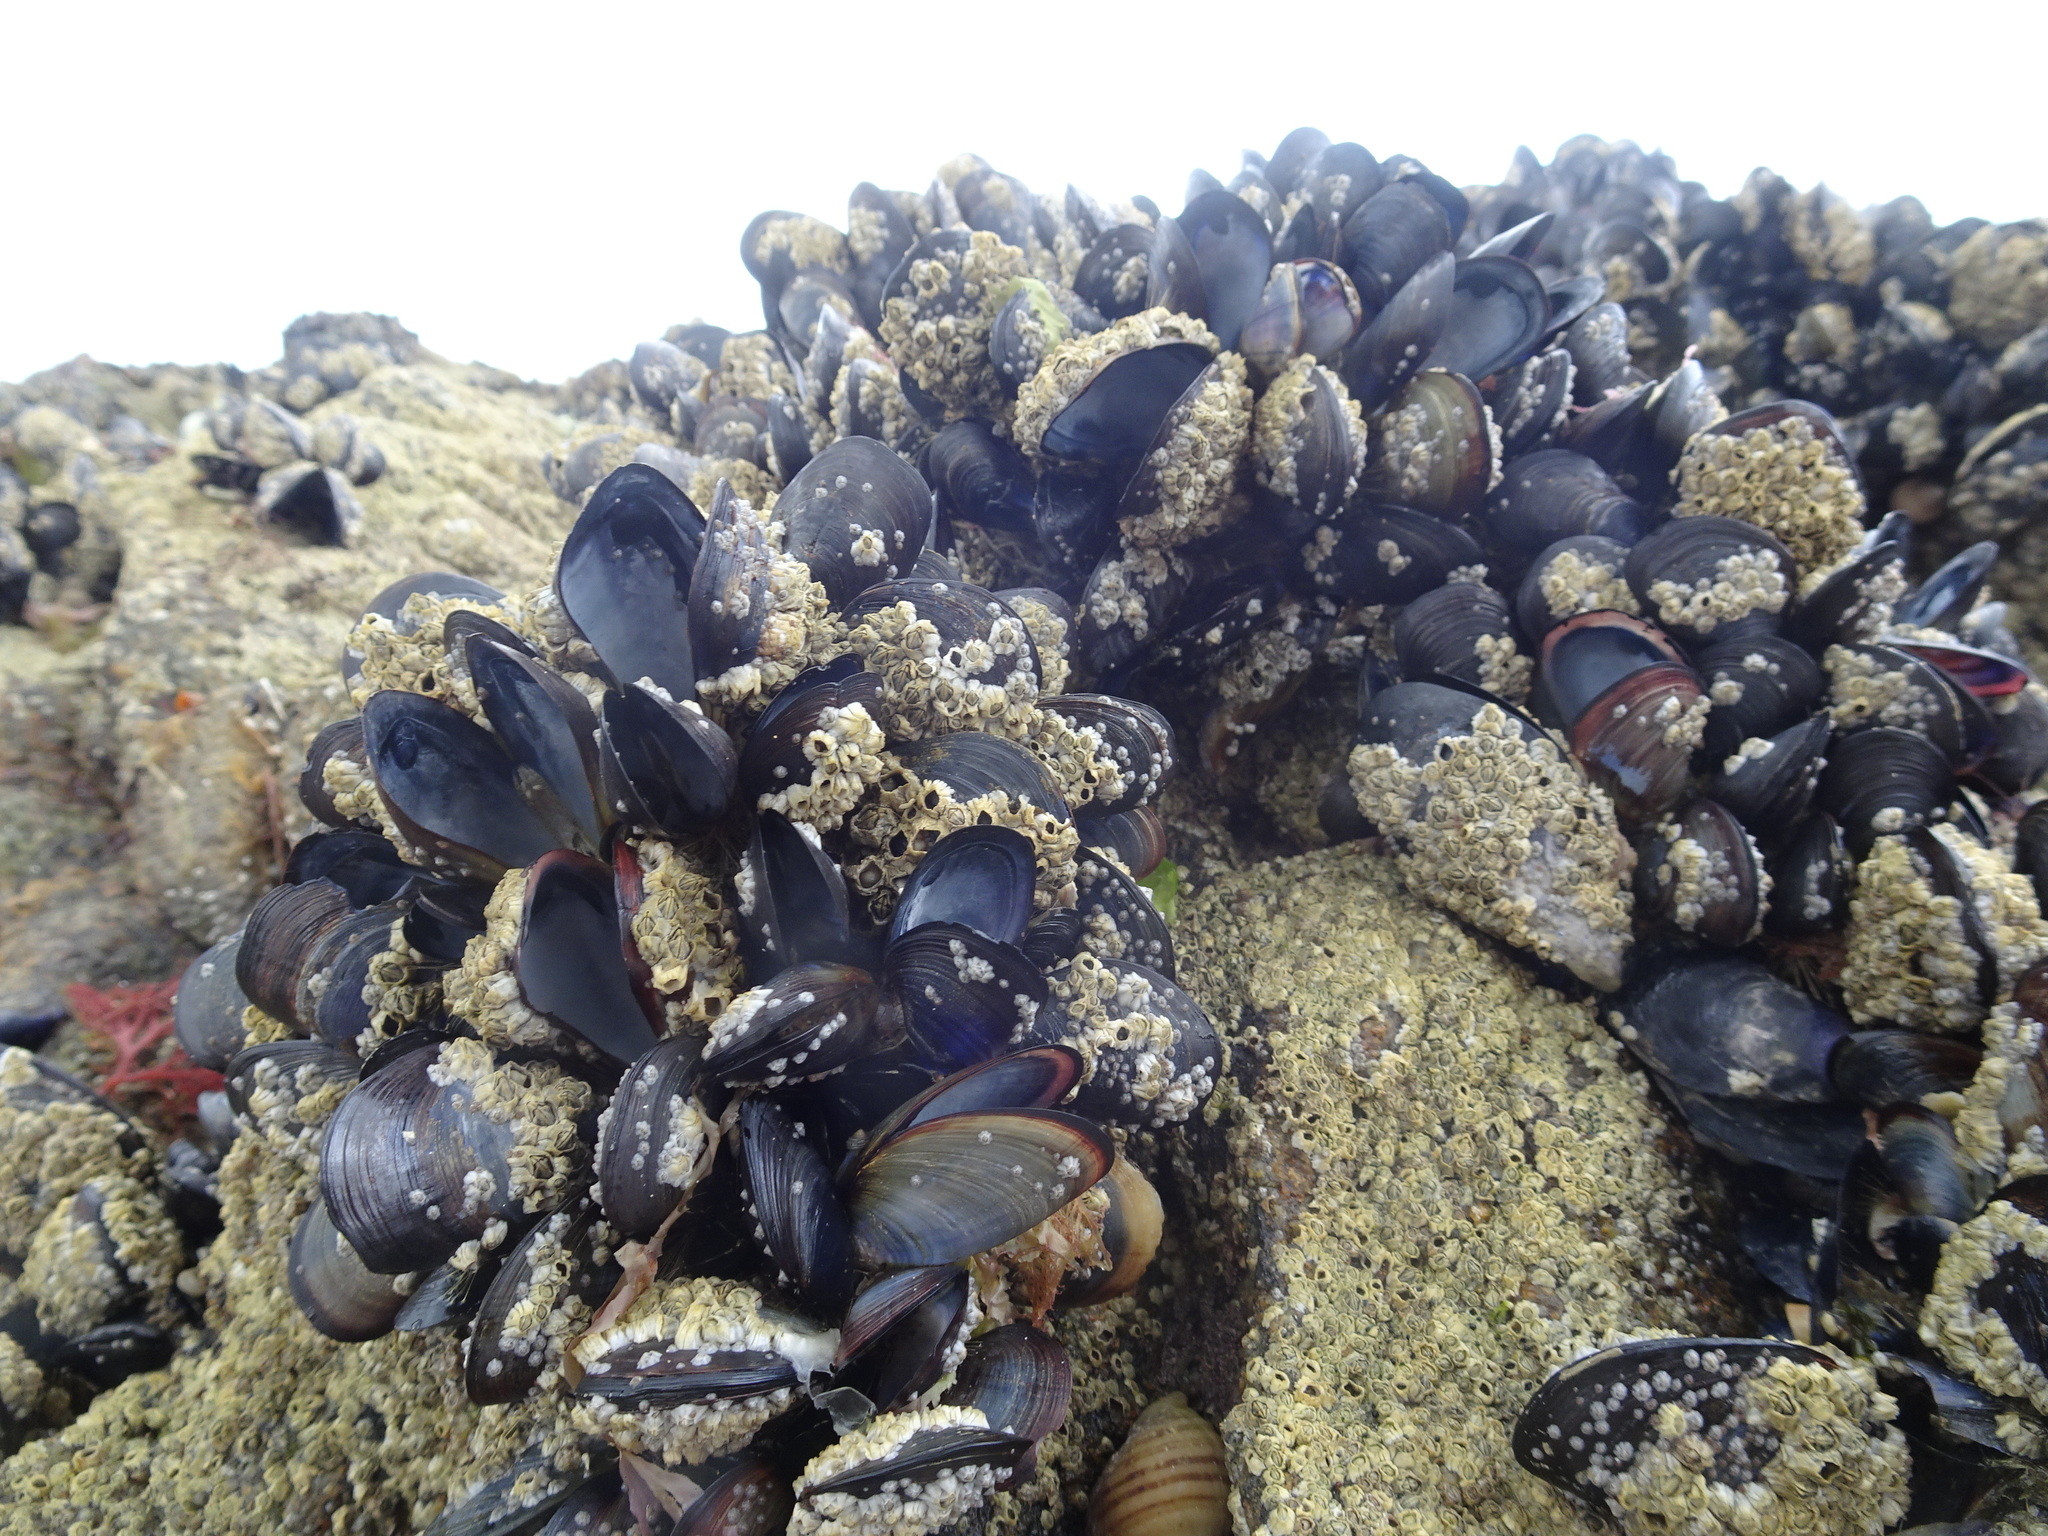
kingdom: Animalia
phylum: Mollusca
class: Bivalvia
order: Mytilida
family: Mytilidae
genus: Mytilus
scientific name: Mytilus edulis
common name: Blue mussel
